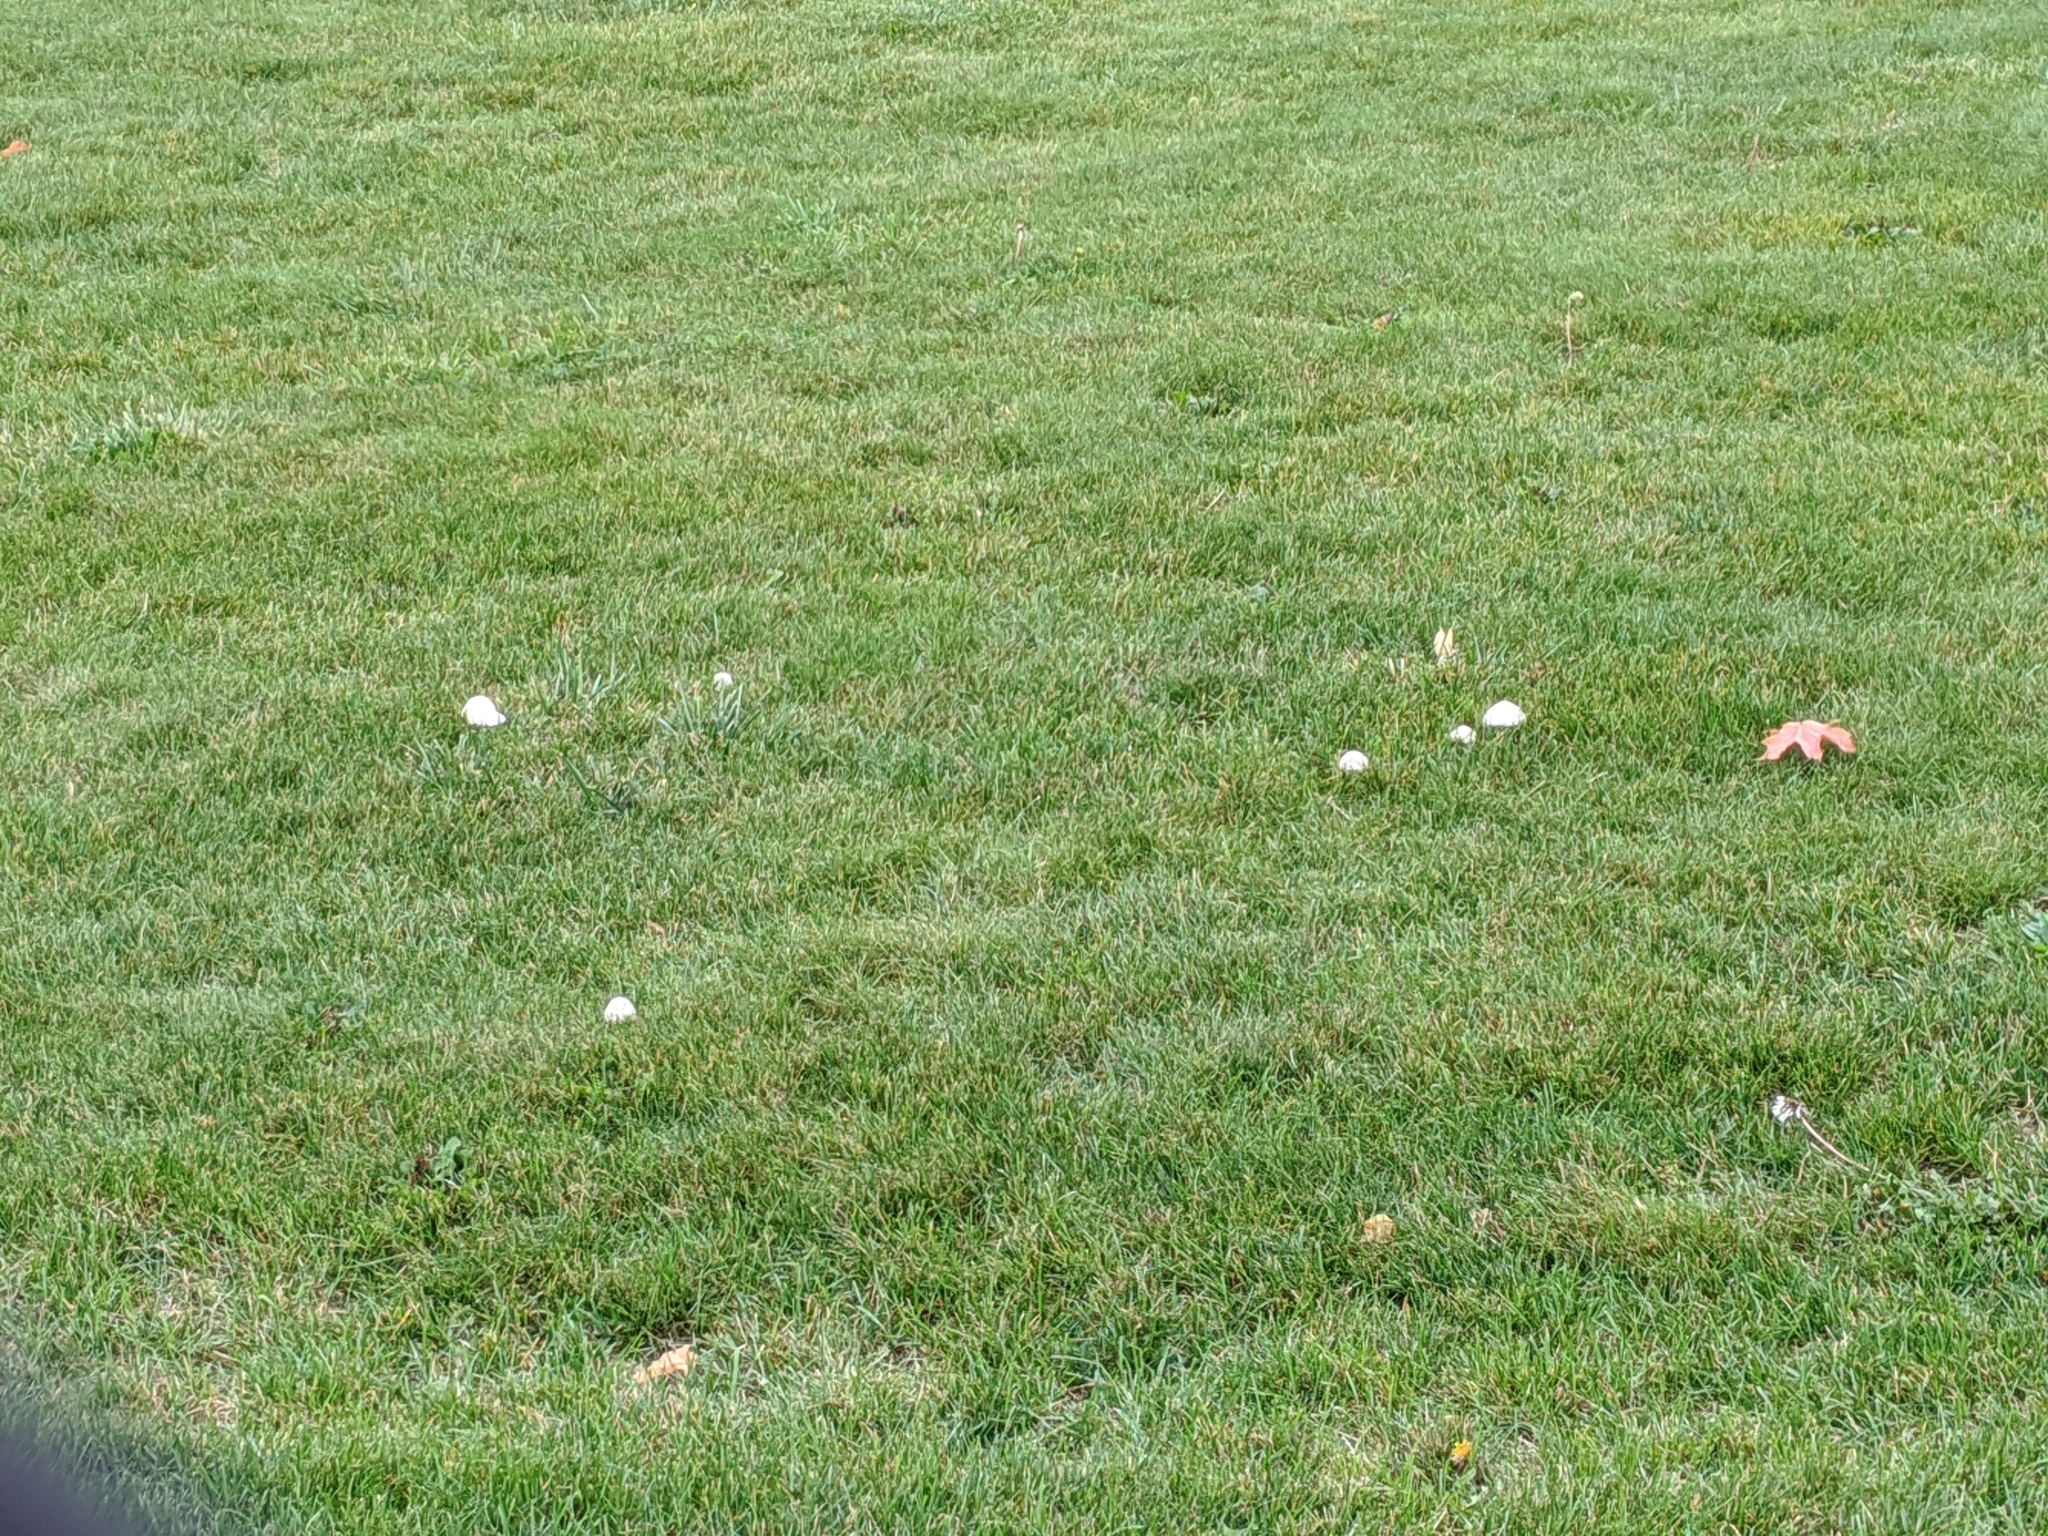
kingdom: Fungi
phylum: Basidiomycota
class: Agaricomycetes
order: Agaricales
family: Agaricaceae
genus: Leucoagaricus
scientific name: Leucoagaricus leucothites
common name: White dapperling
